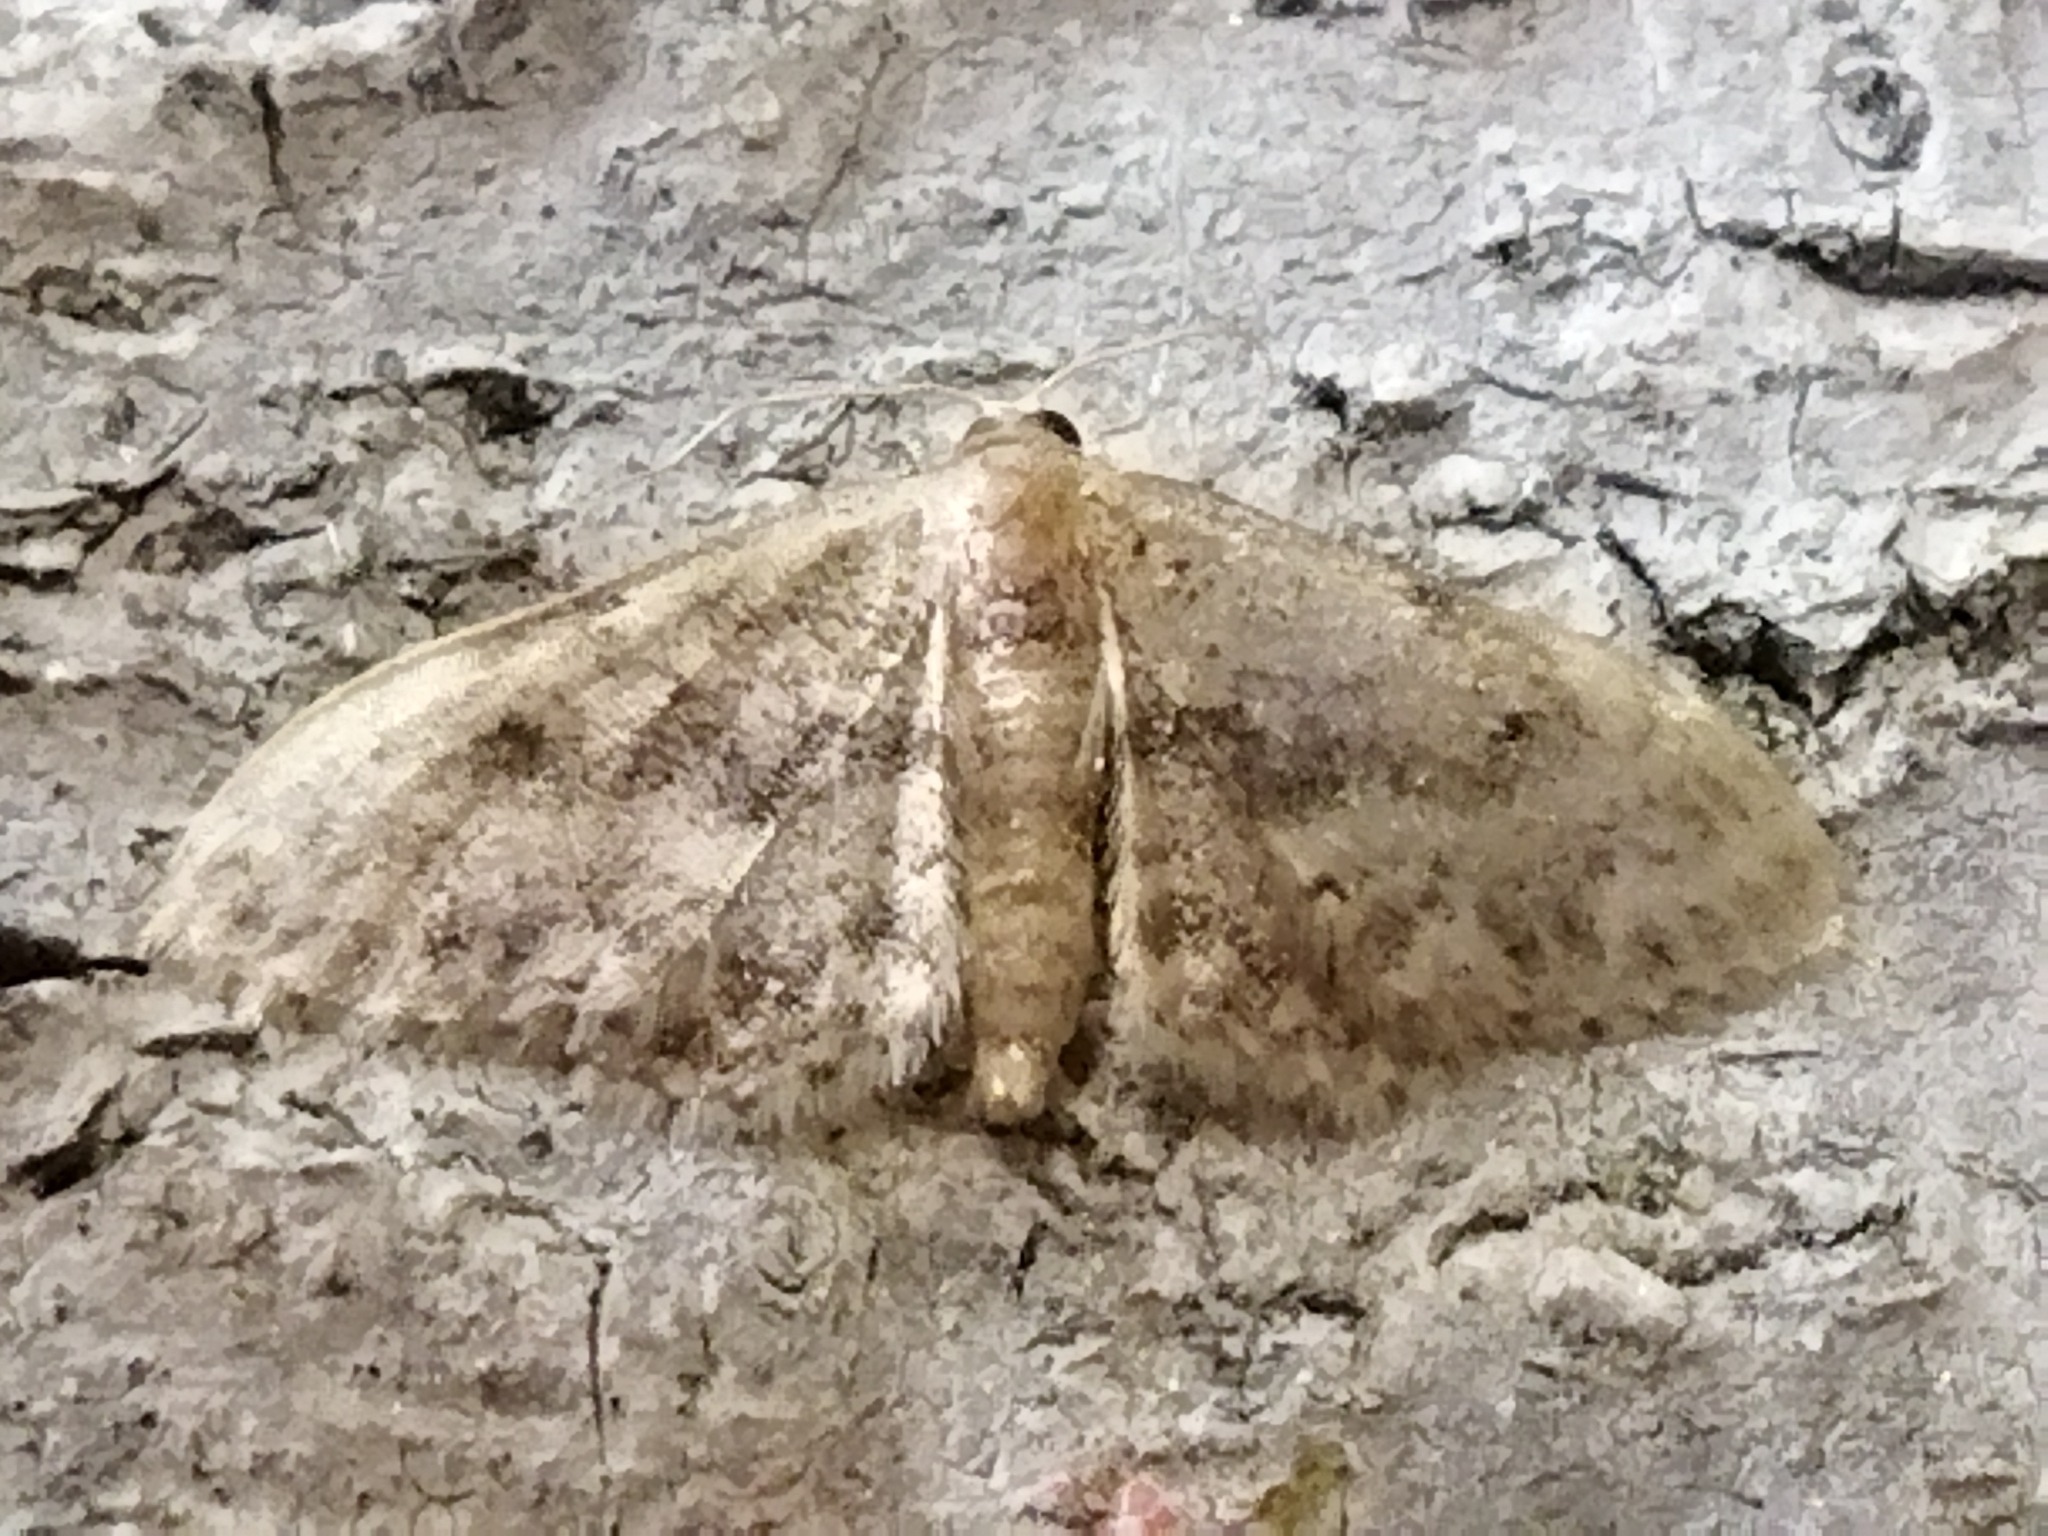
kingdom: Animalia
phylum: Arthropoda
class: Insecta
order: Lepidoptera
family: Geometridae
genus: Idaea
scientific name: Idaea inquinata
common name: Rusty wave
